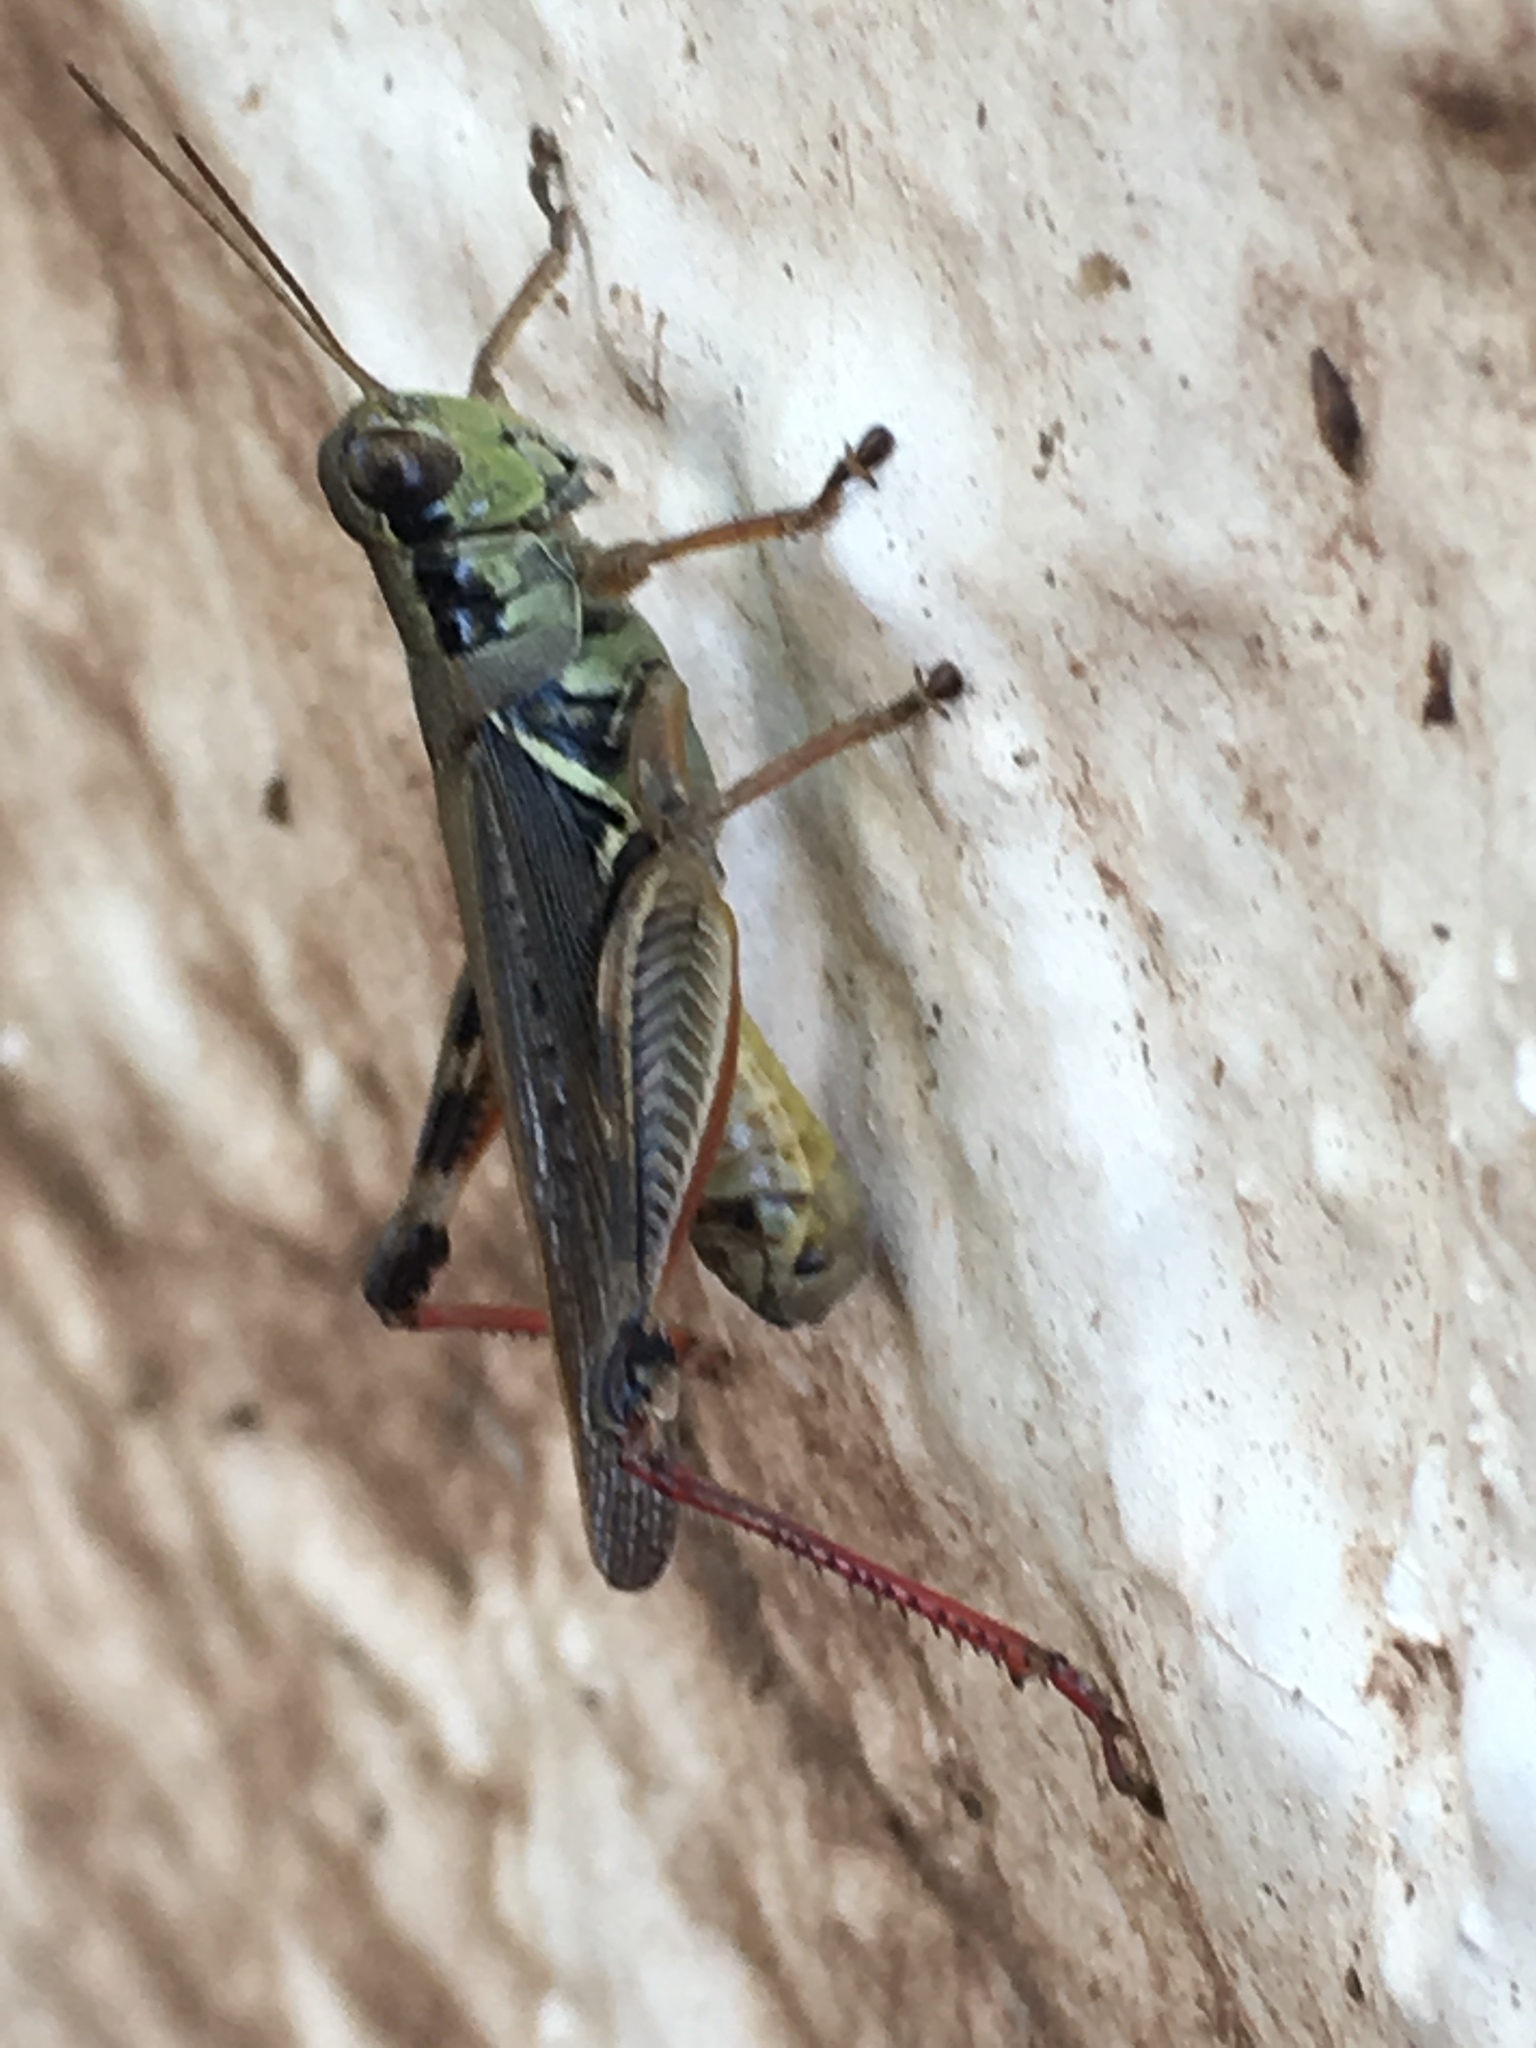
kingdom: Animalia
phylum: Arthropoda
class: Insecta
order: Orthoptera
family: Acrididae
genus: Melanoplus
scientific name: Melanoplus femurrubrum
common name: Red-legged grasshopper
